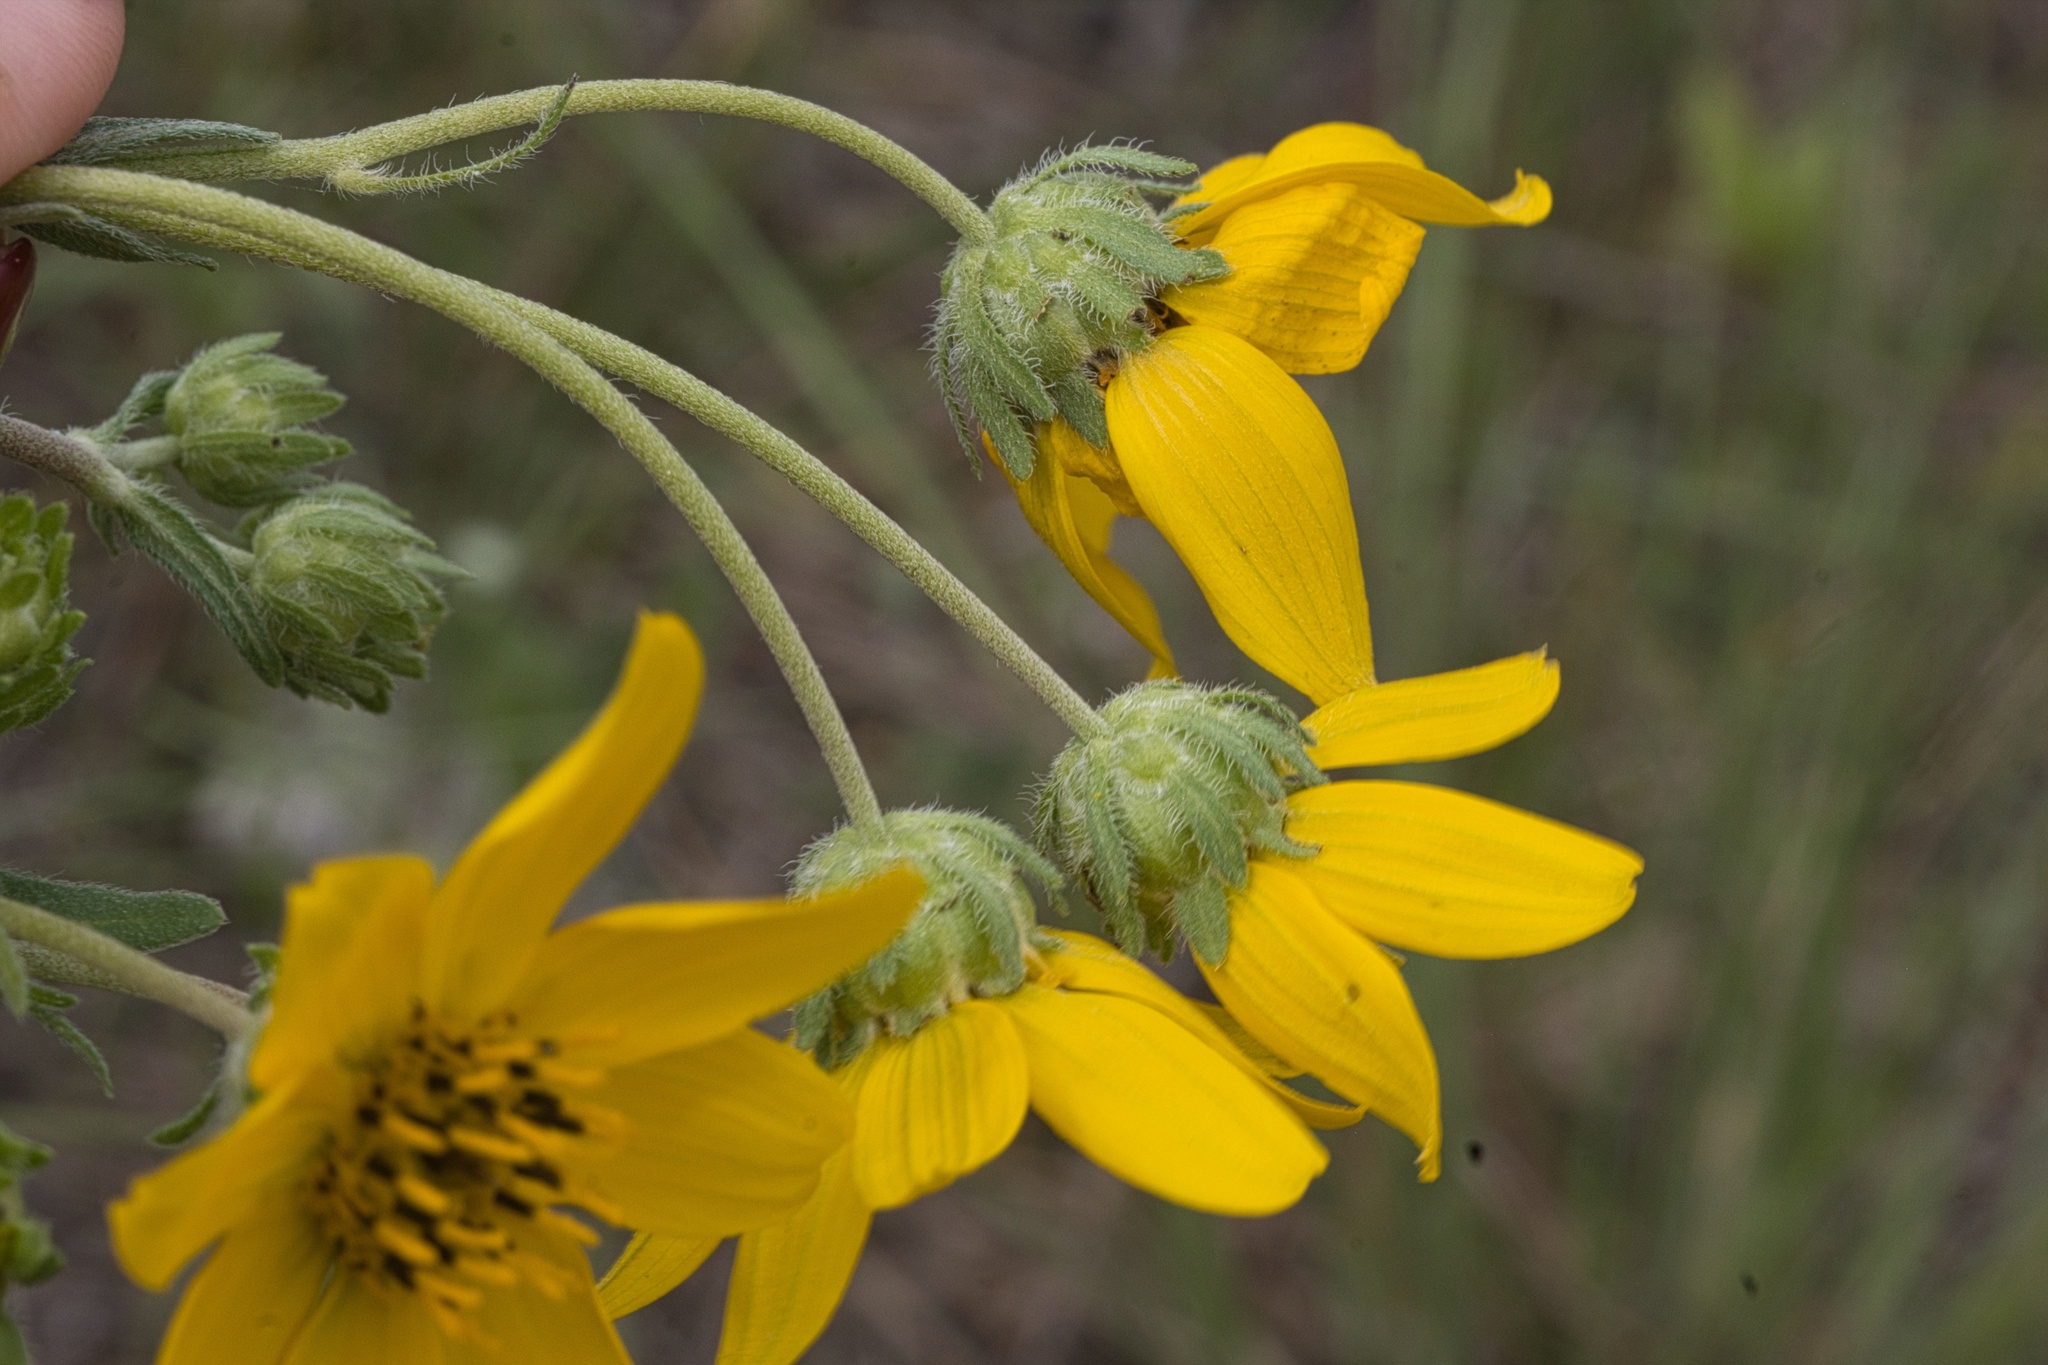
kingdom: Plantae
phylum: Tracheophyta
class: Magnoliopsida
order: Asterales
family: Asteraceae
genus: Engelmannia
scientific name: Engelmannia peristenia
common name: Engelmann's daisy
